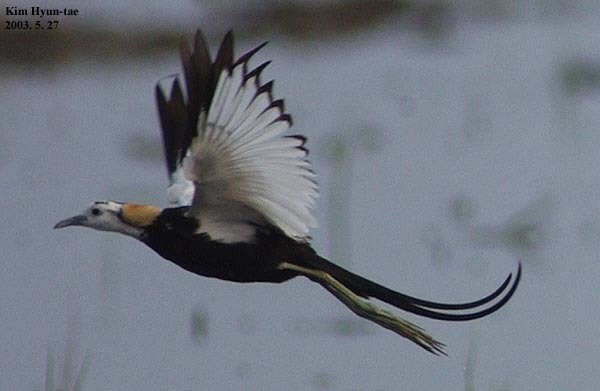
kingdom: Animalia
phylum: Chordata
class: Aves
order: Charadriiformes
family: Jacanidae
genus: Hydrophasianus
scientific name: Hydrophasianus chirurgus
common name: Pheasant-tailed jacana
